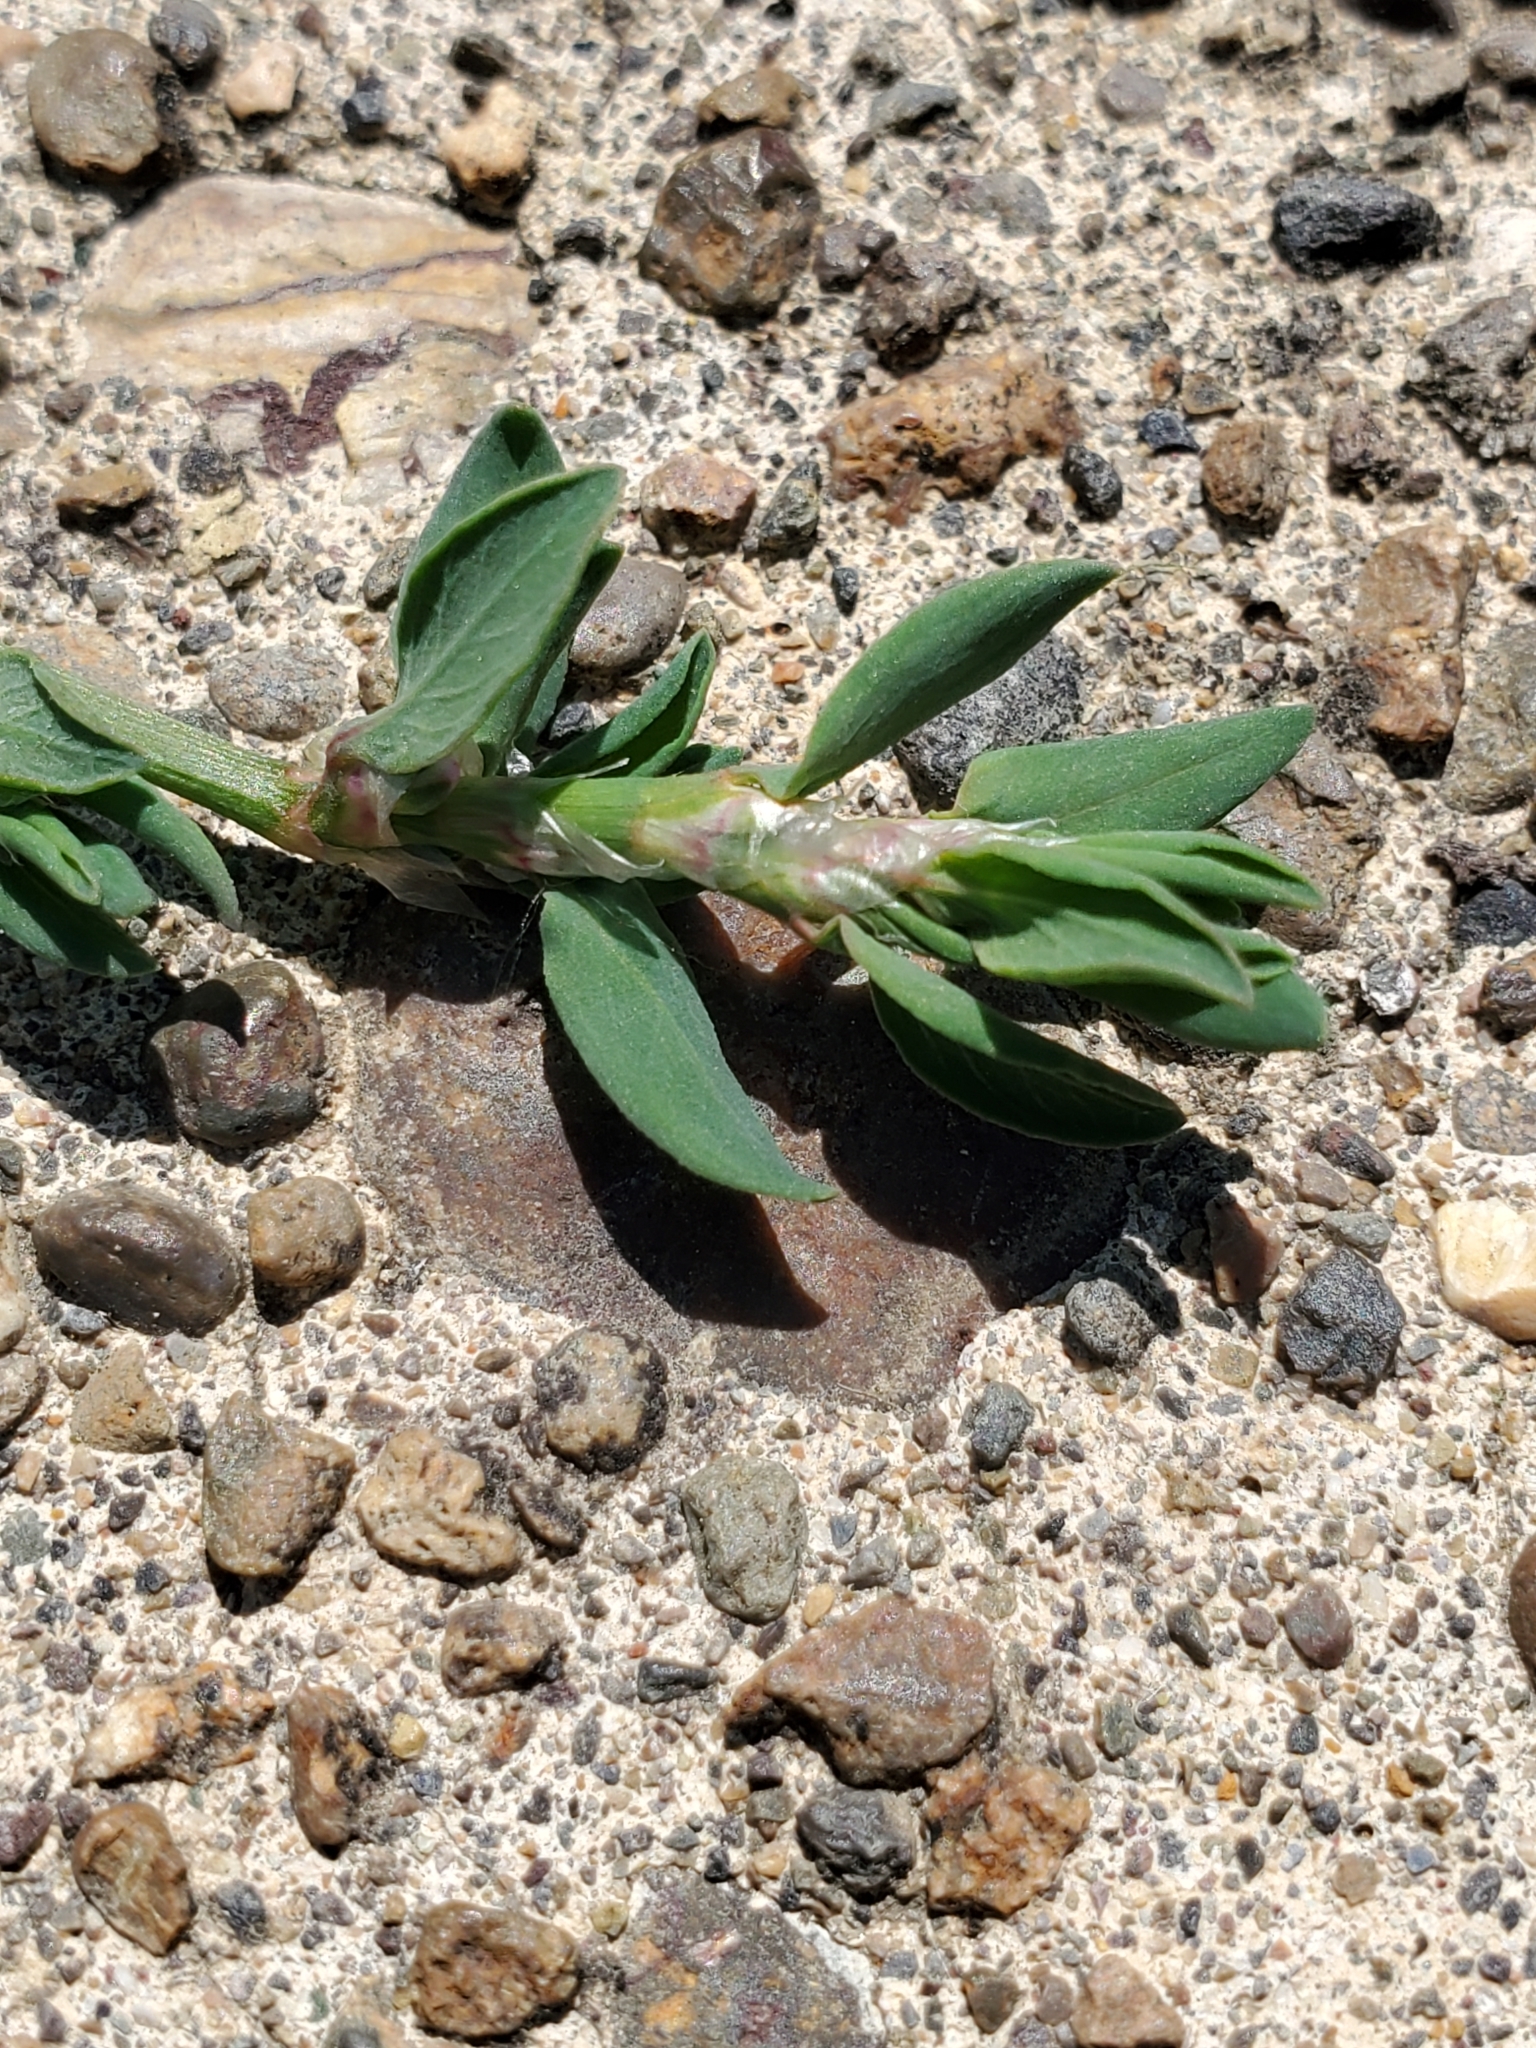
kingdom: Plantae
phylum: Tracheophyta
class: Magnoliopsida
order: Caryophyllales
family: Polygonaceae
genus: Polygonum
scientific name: Polygonum aviculare
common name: Prostrate knotweed
